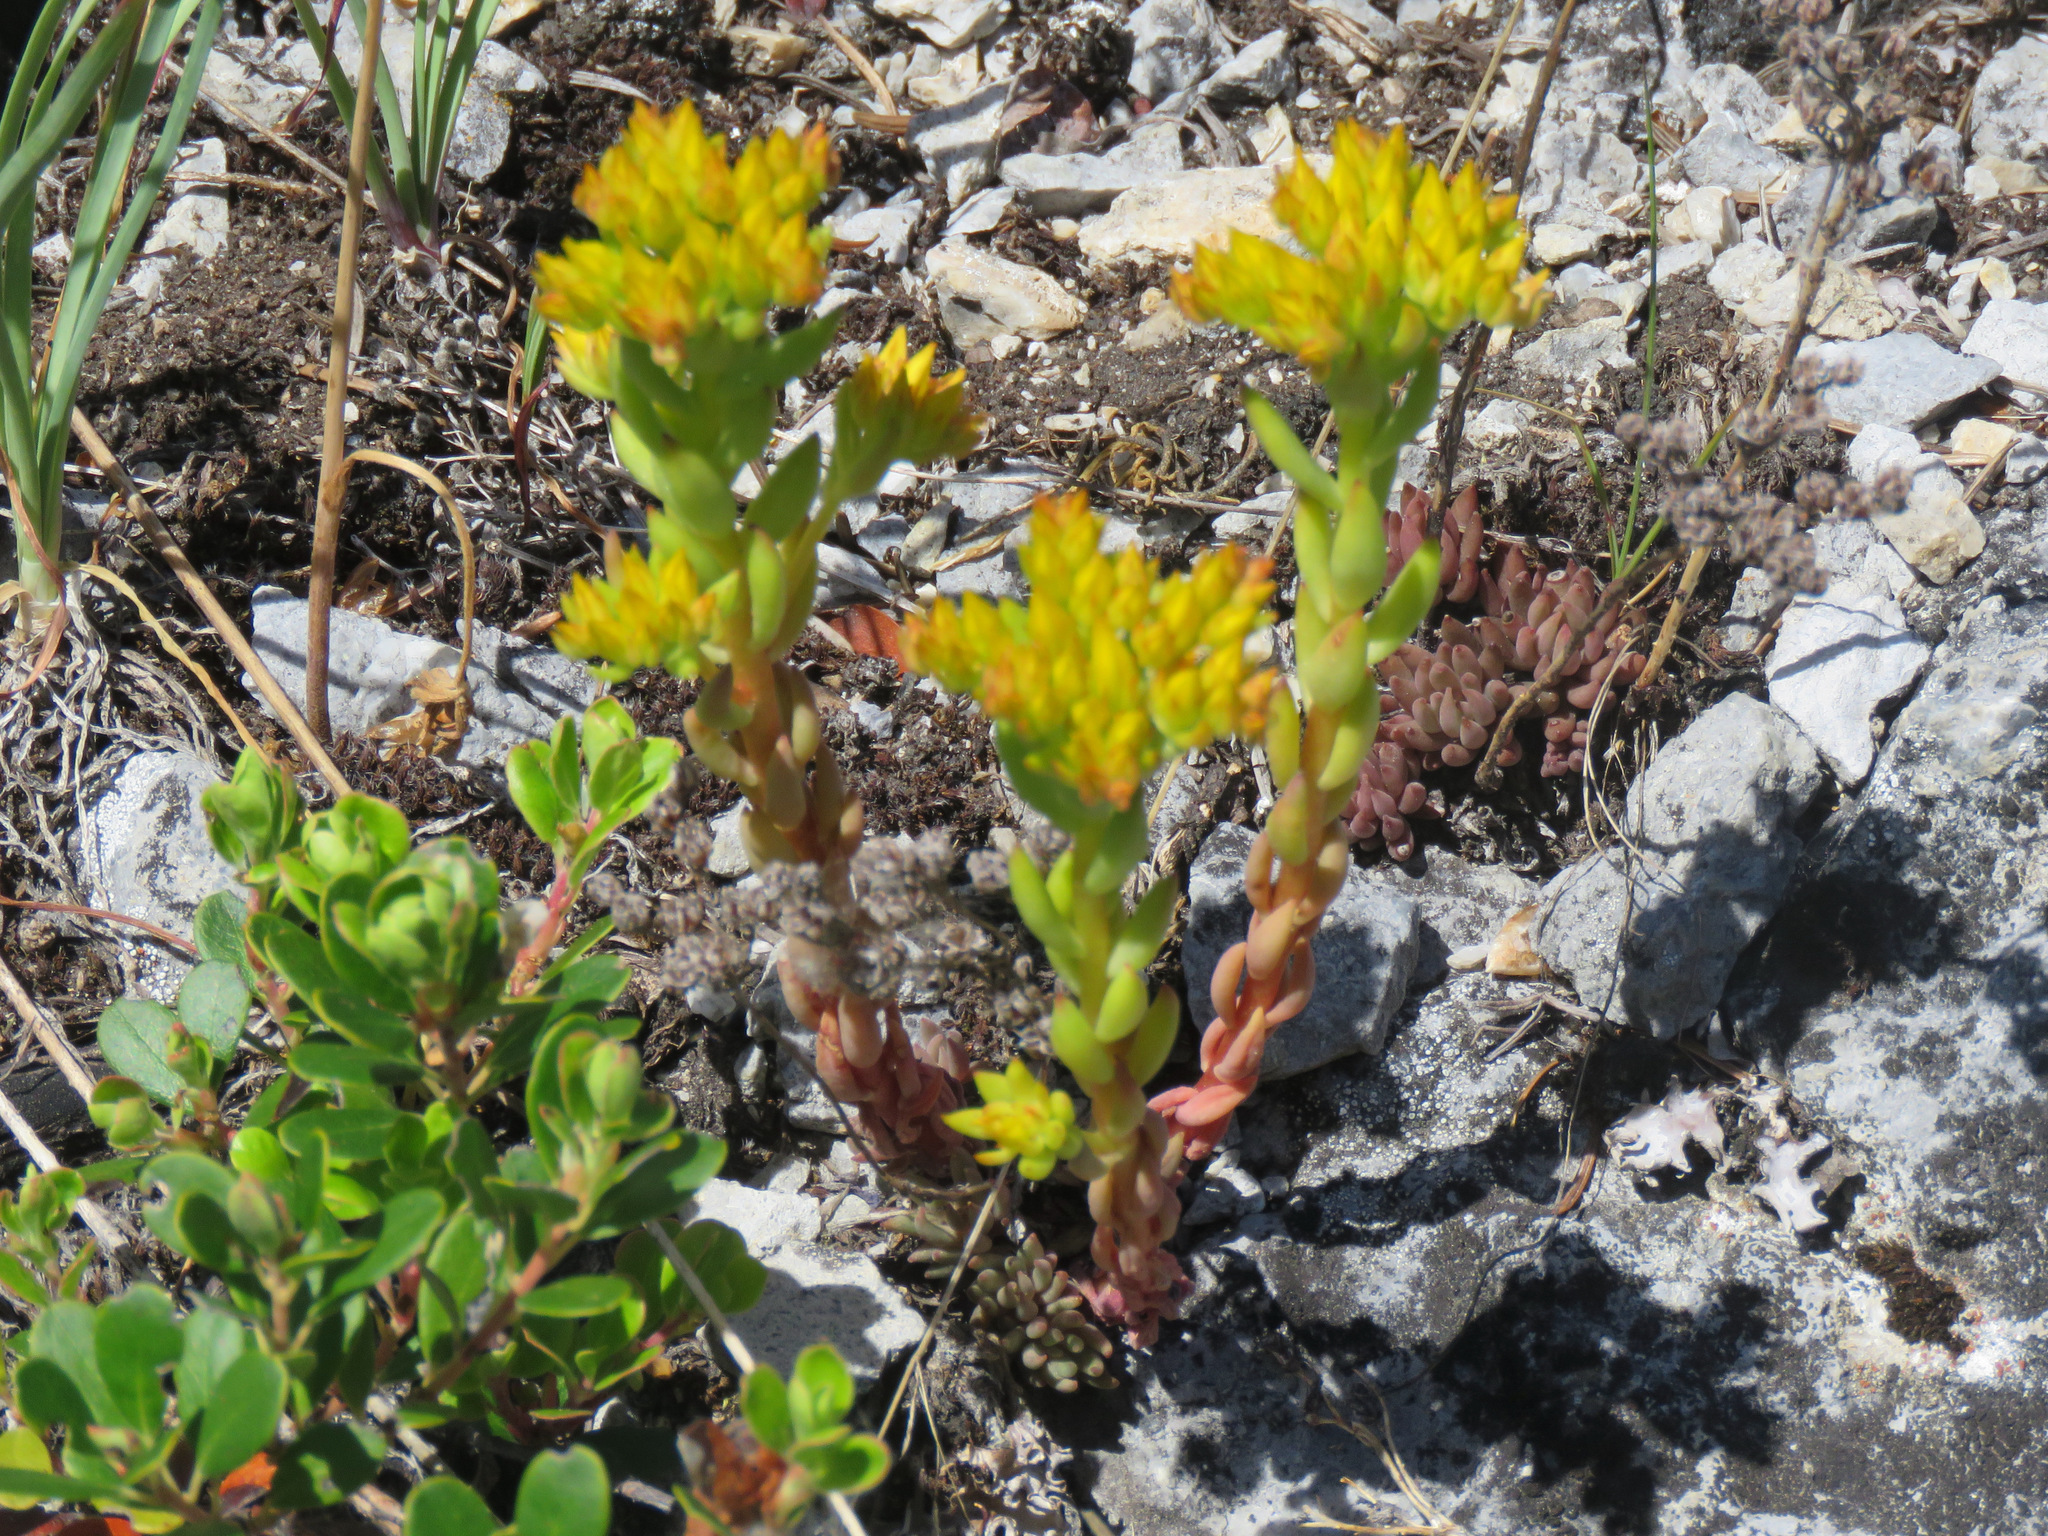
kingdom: Plantae
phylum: Tracheophyta
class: Magnoliopsida
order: Saxifragales
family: Crassulaceae
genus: Sedum
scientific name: Sedum lanceolatum
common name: Common stonecrop
